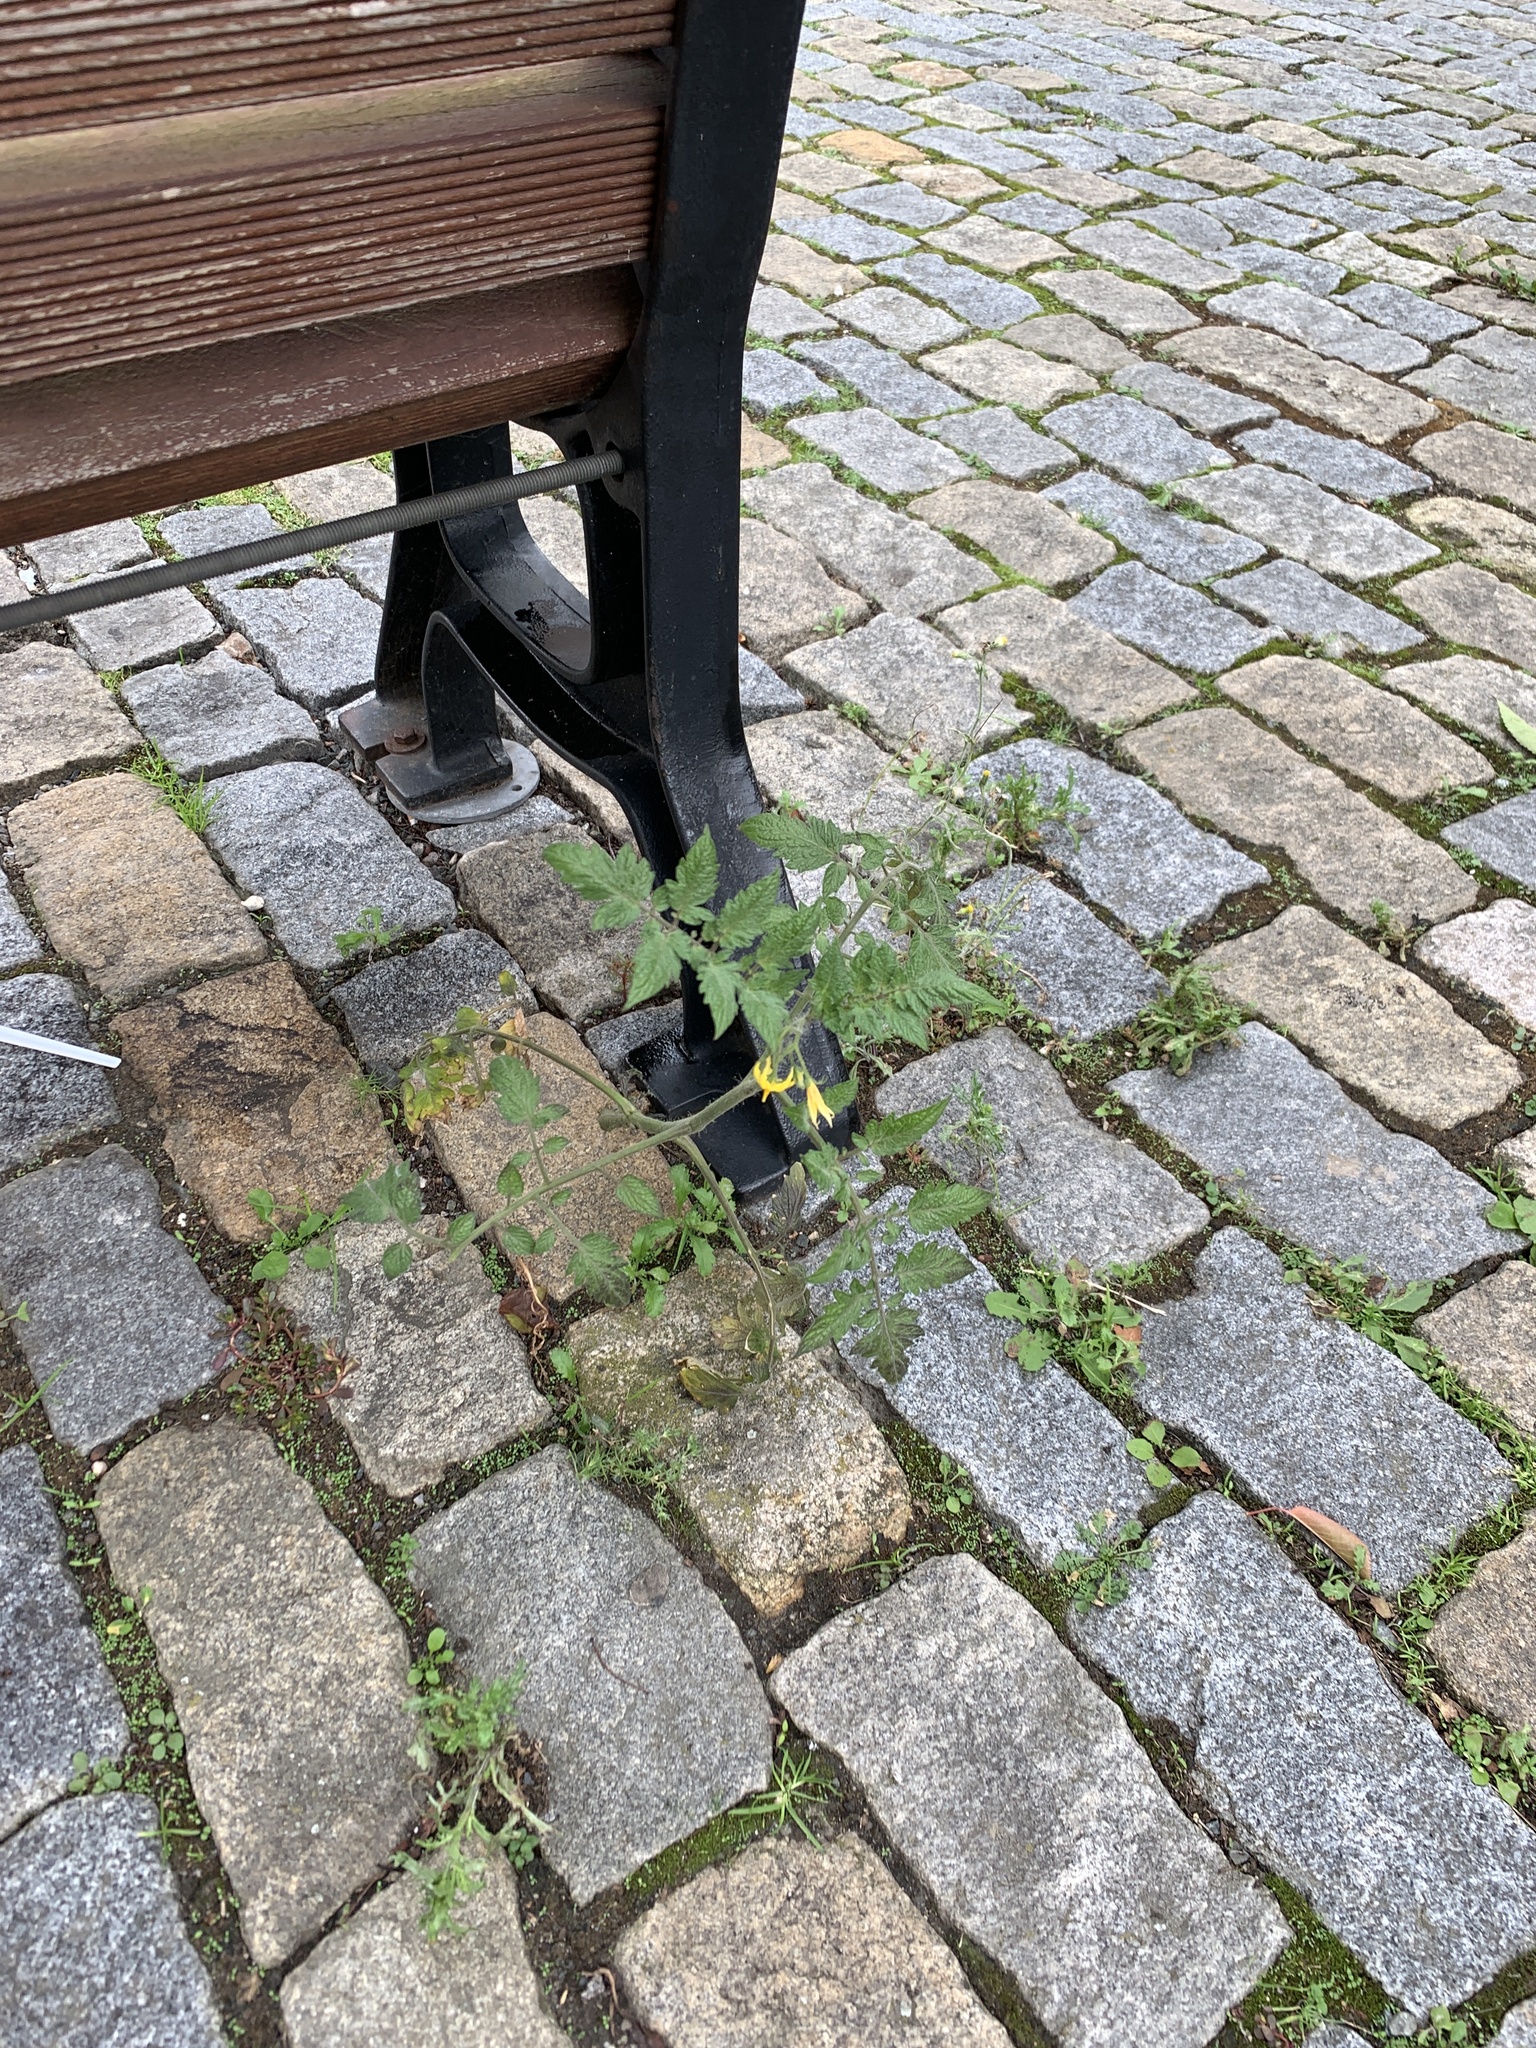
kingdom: Plantae
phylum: Tracheophyta
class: Magnoliopsida
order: Solanales
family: Solanaceae
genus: Solanum
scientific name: Solanum lycopersicum
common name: Garden tomato
